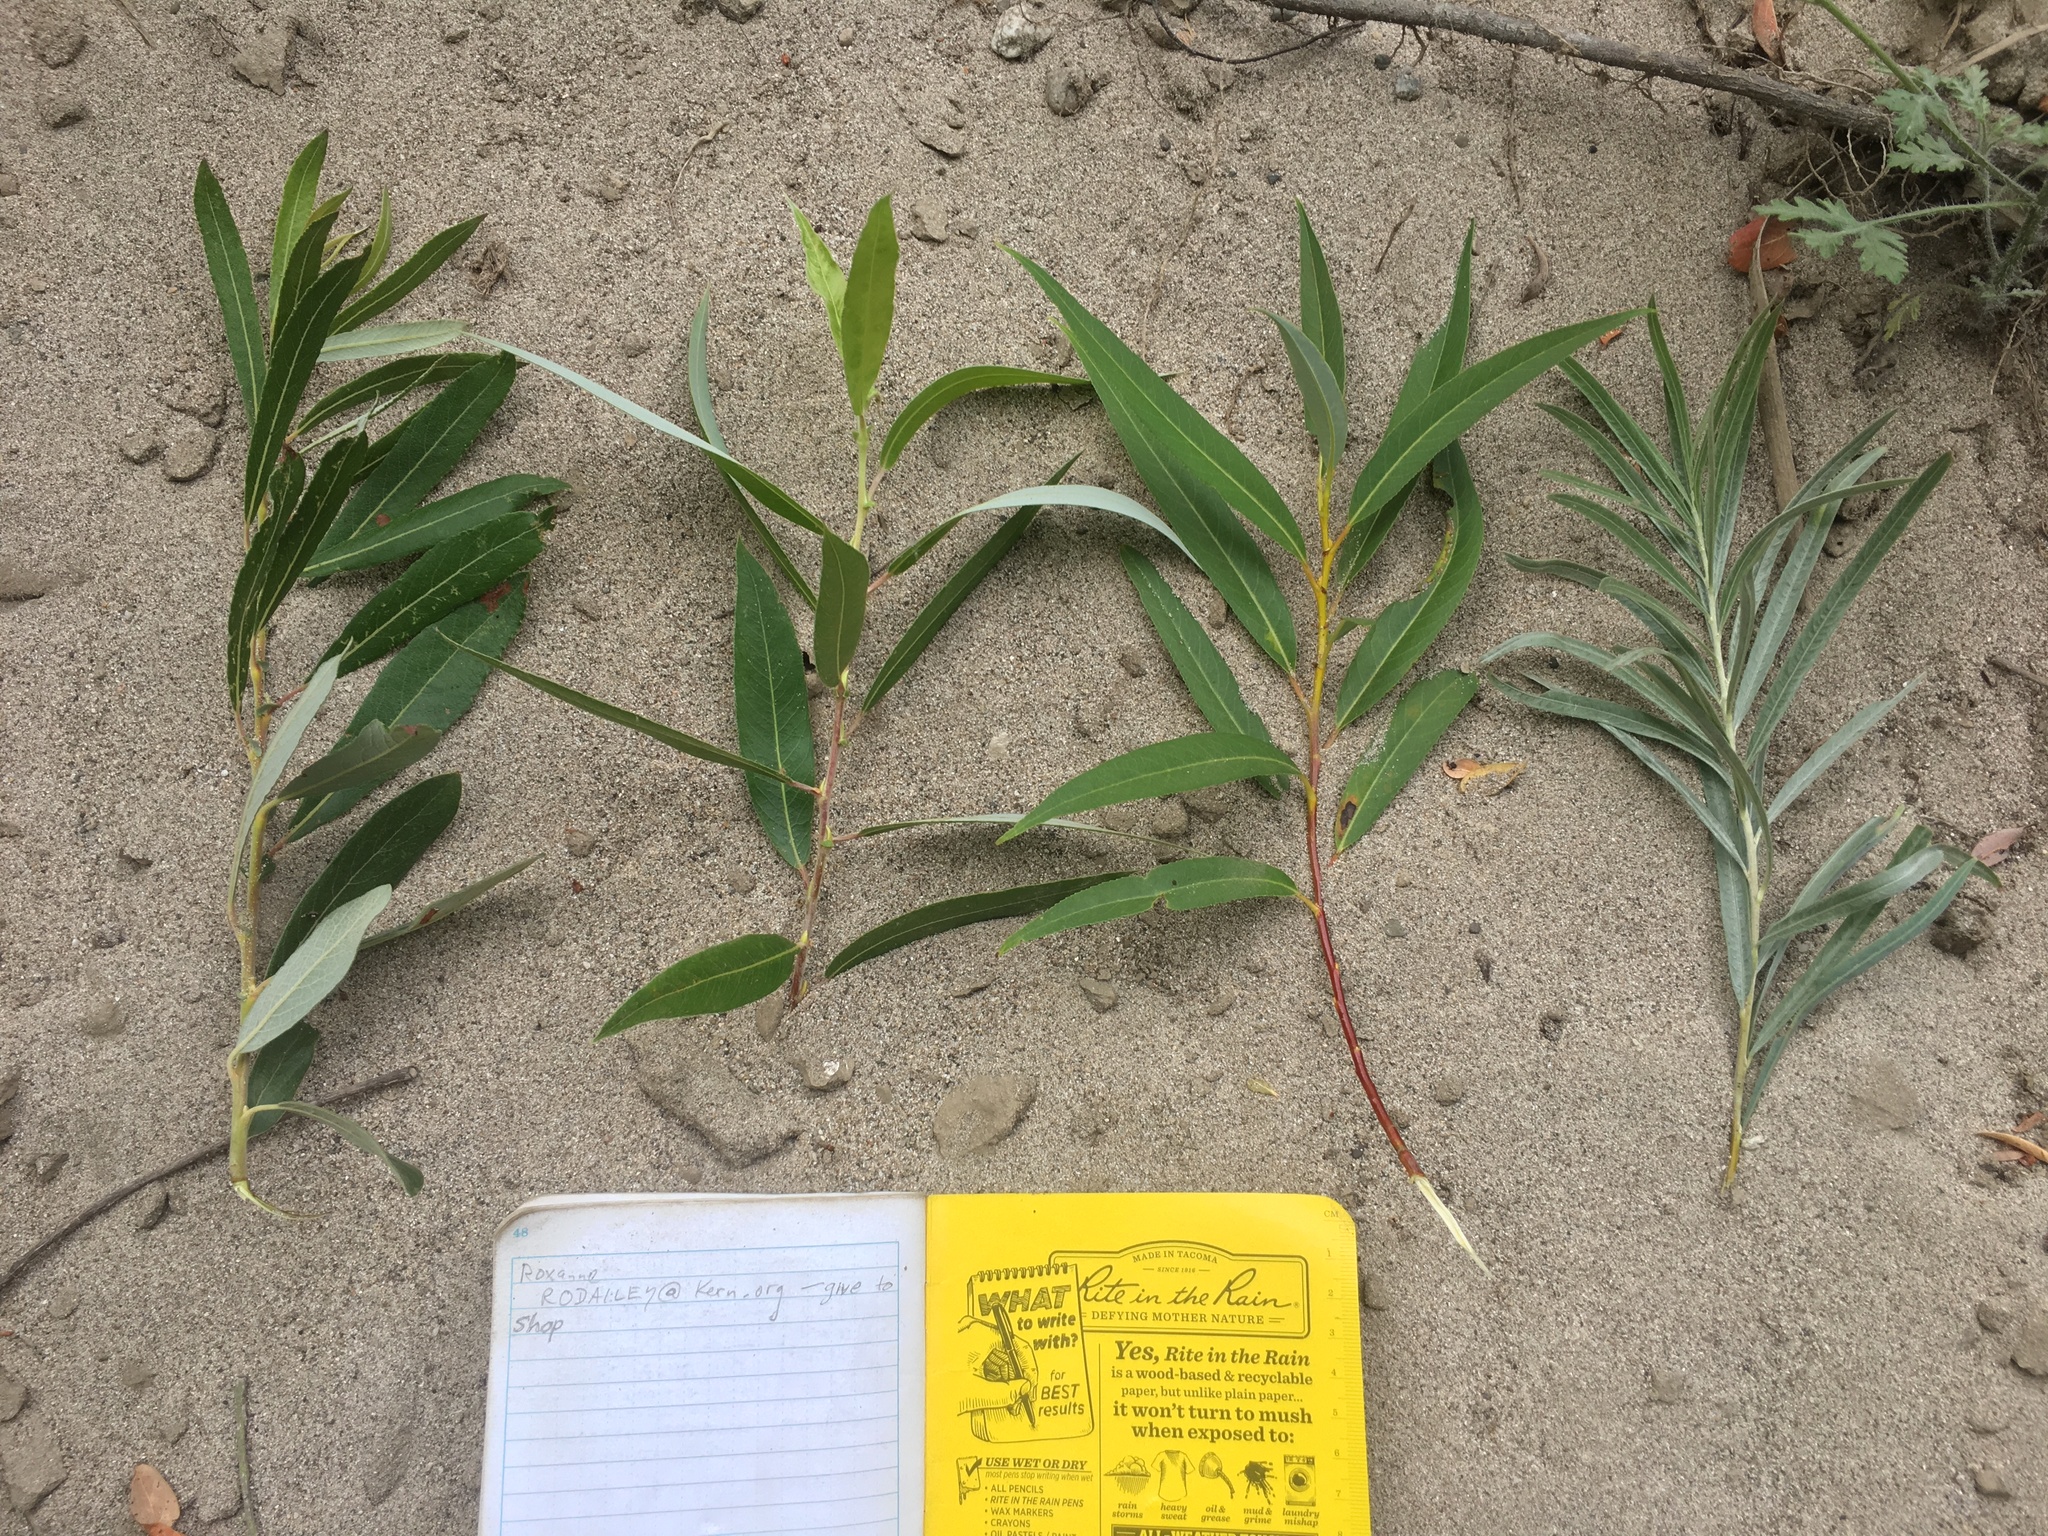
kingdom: Plantae
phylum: Tracheophyta
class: Magnoliopsida
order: Malpighiales
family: Salicaceae
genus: Salix
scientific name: Salix lasiolepis
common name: Arroyo willow
